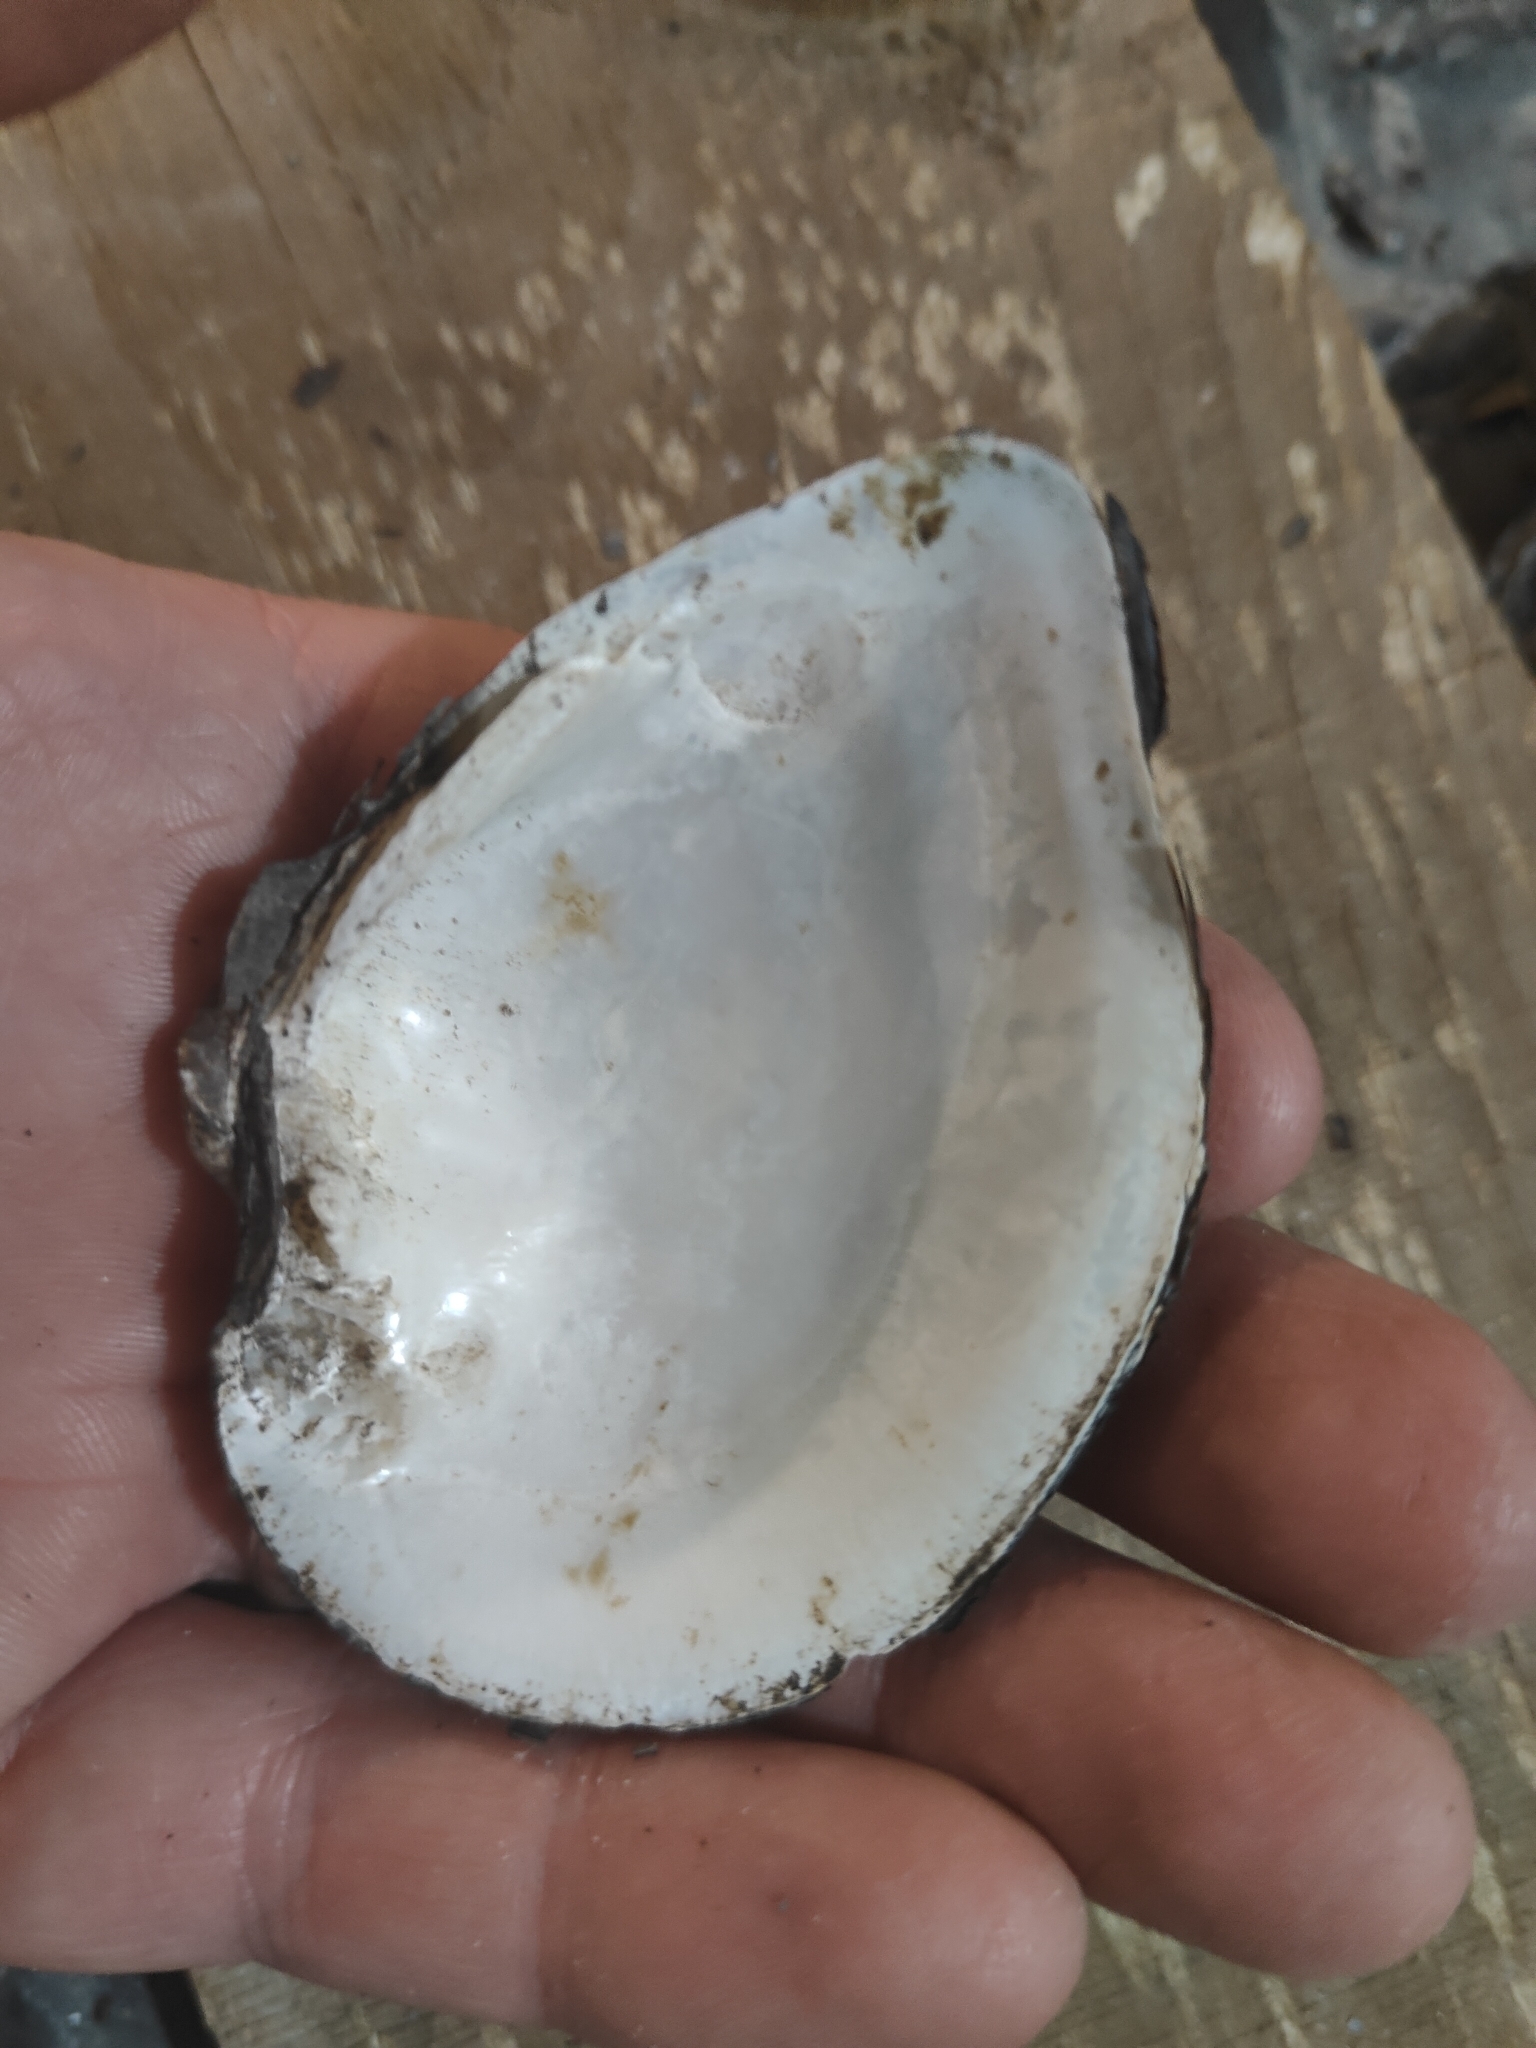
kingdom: Animalia
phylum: Mollusca
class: Bivalvia
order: Unionida
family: Unionidae
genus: Truncilla
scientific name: Truncilla truncata
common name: Deertoe
